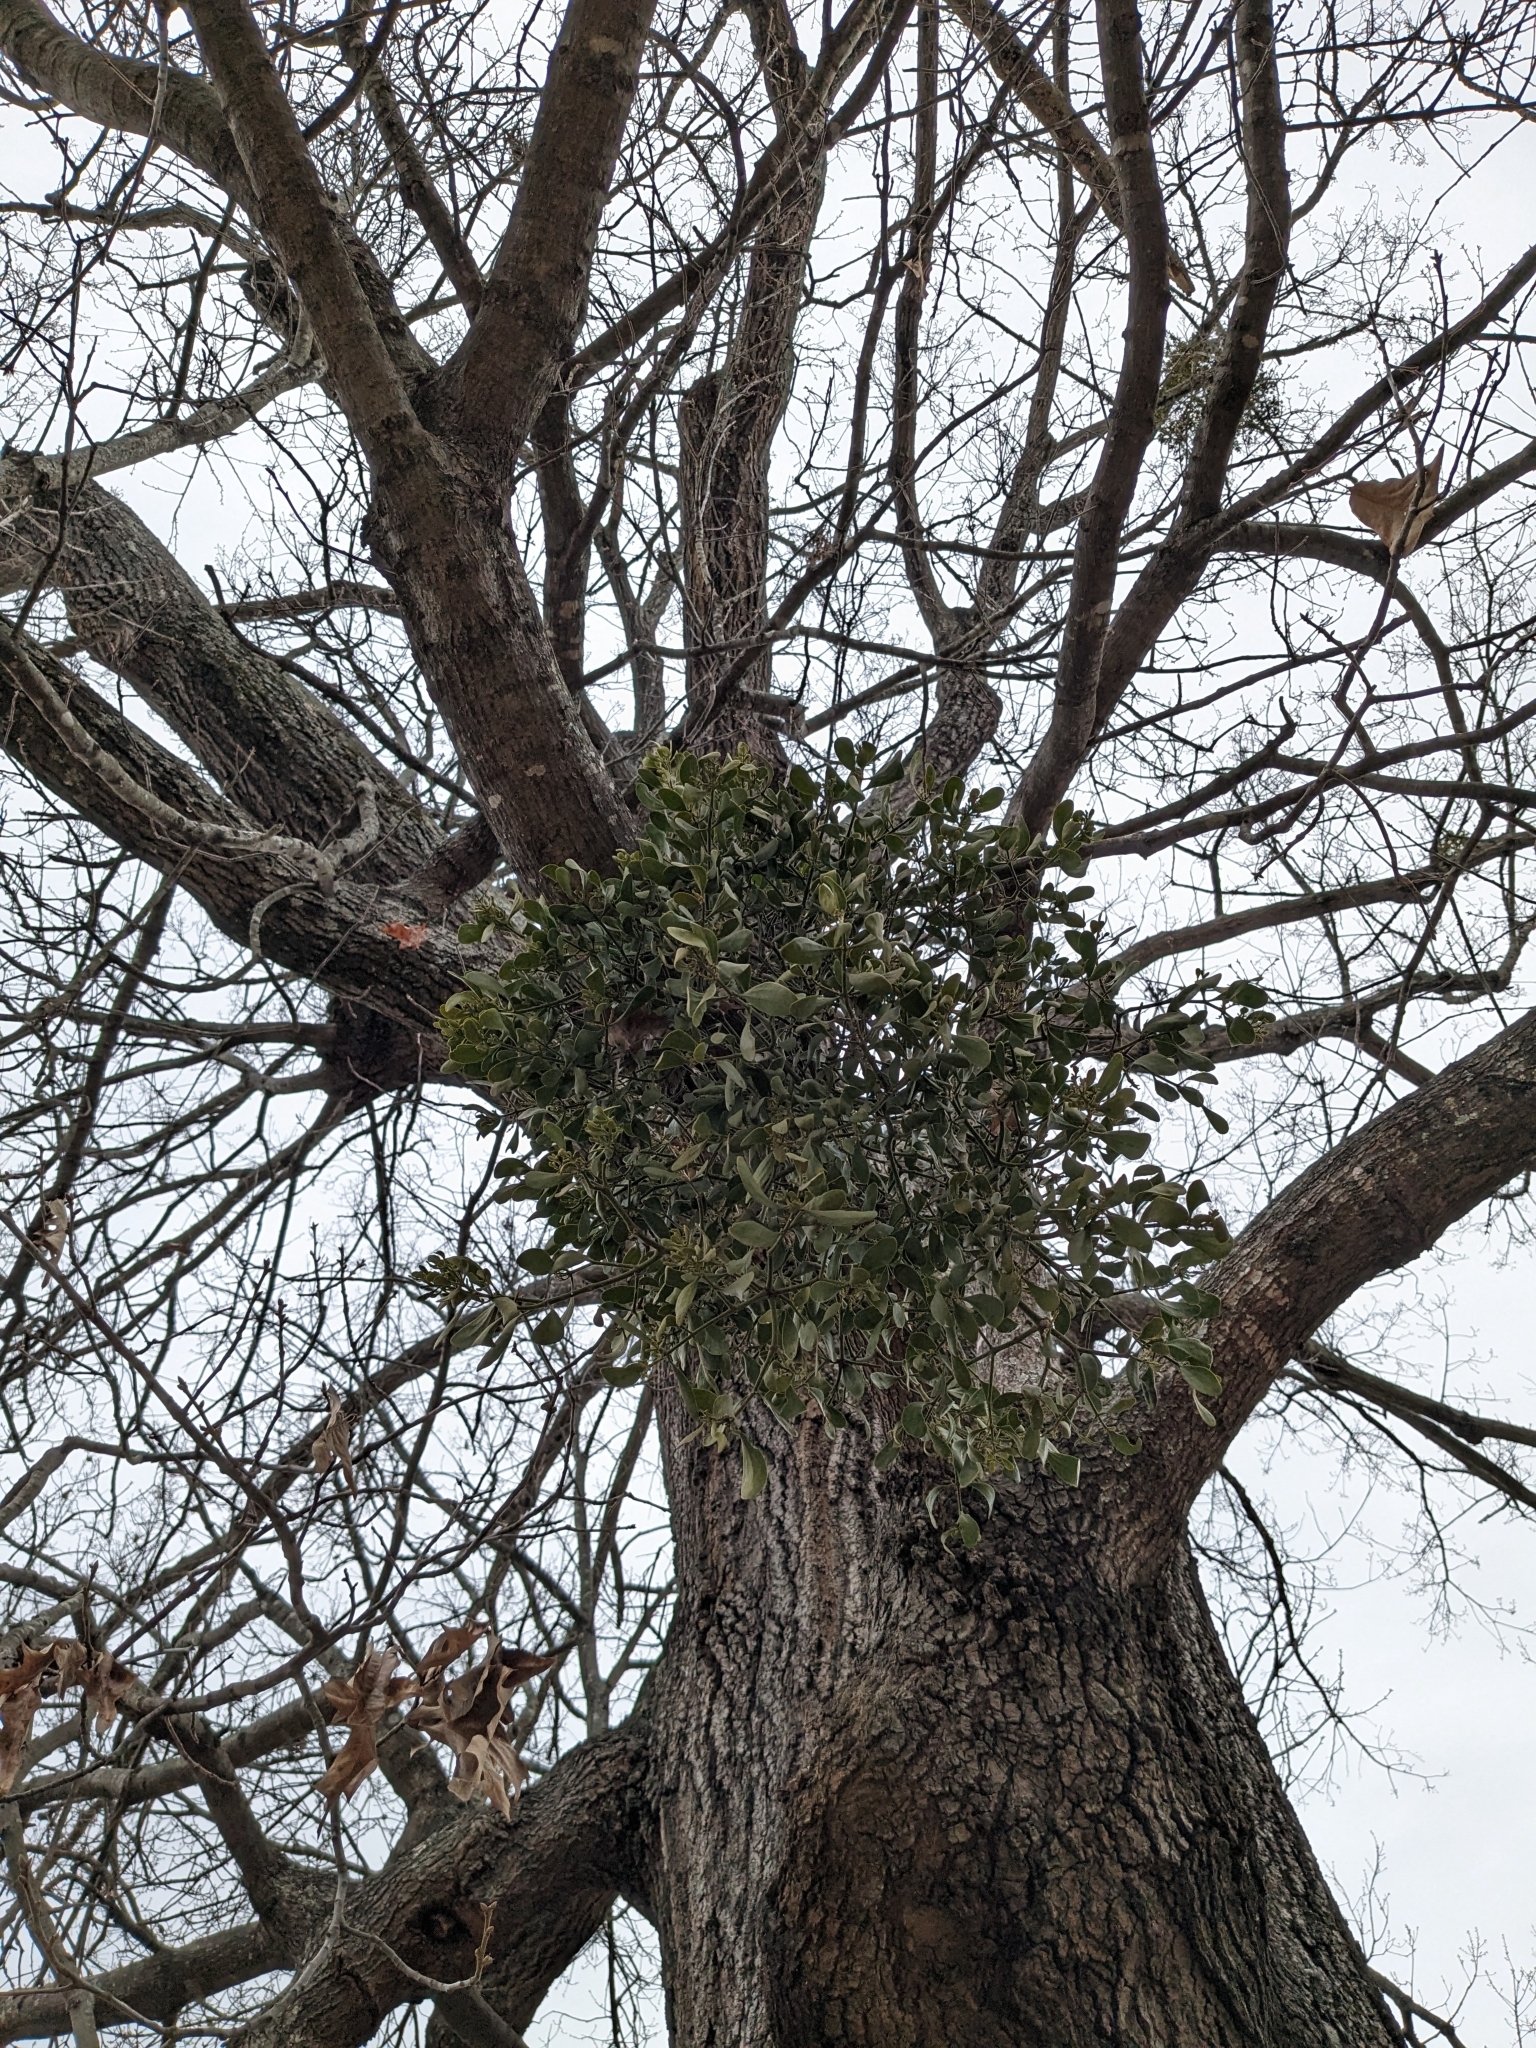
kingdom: Plantae
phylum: Tracheophyta
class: Magnoliopsida
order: Santalales
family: Viscaceae
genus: Phoradendron
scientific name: Phoradendron leucarpum
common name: Pacific mistletoe
